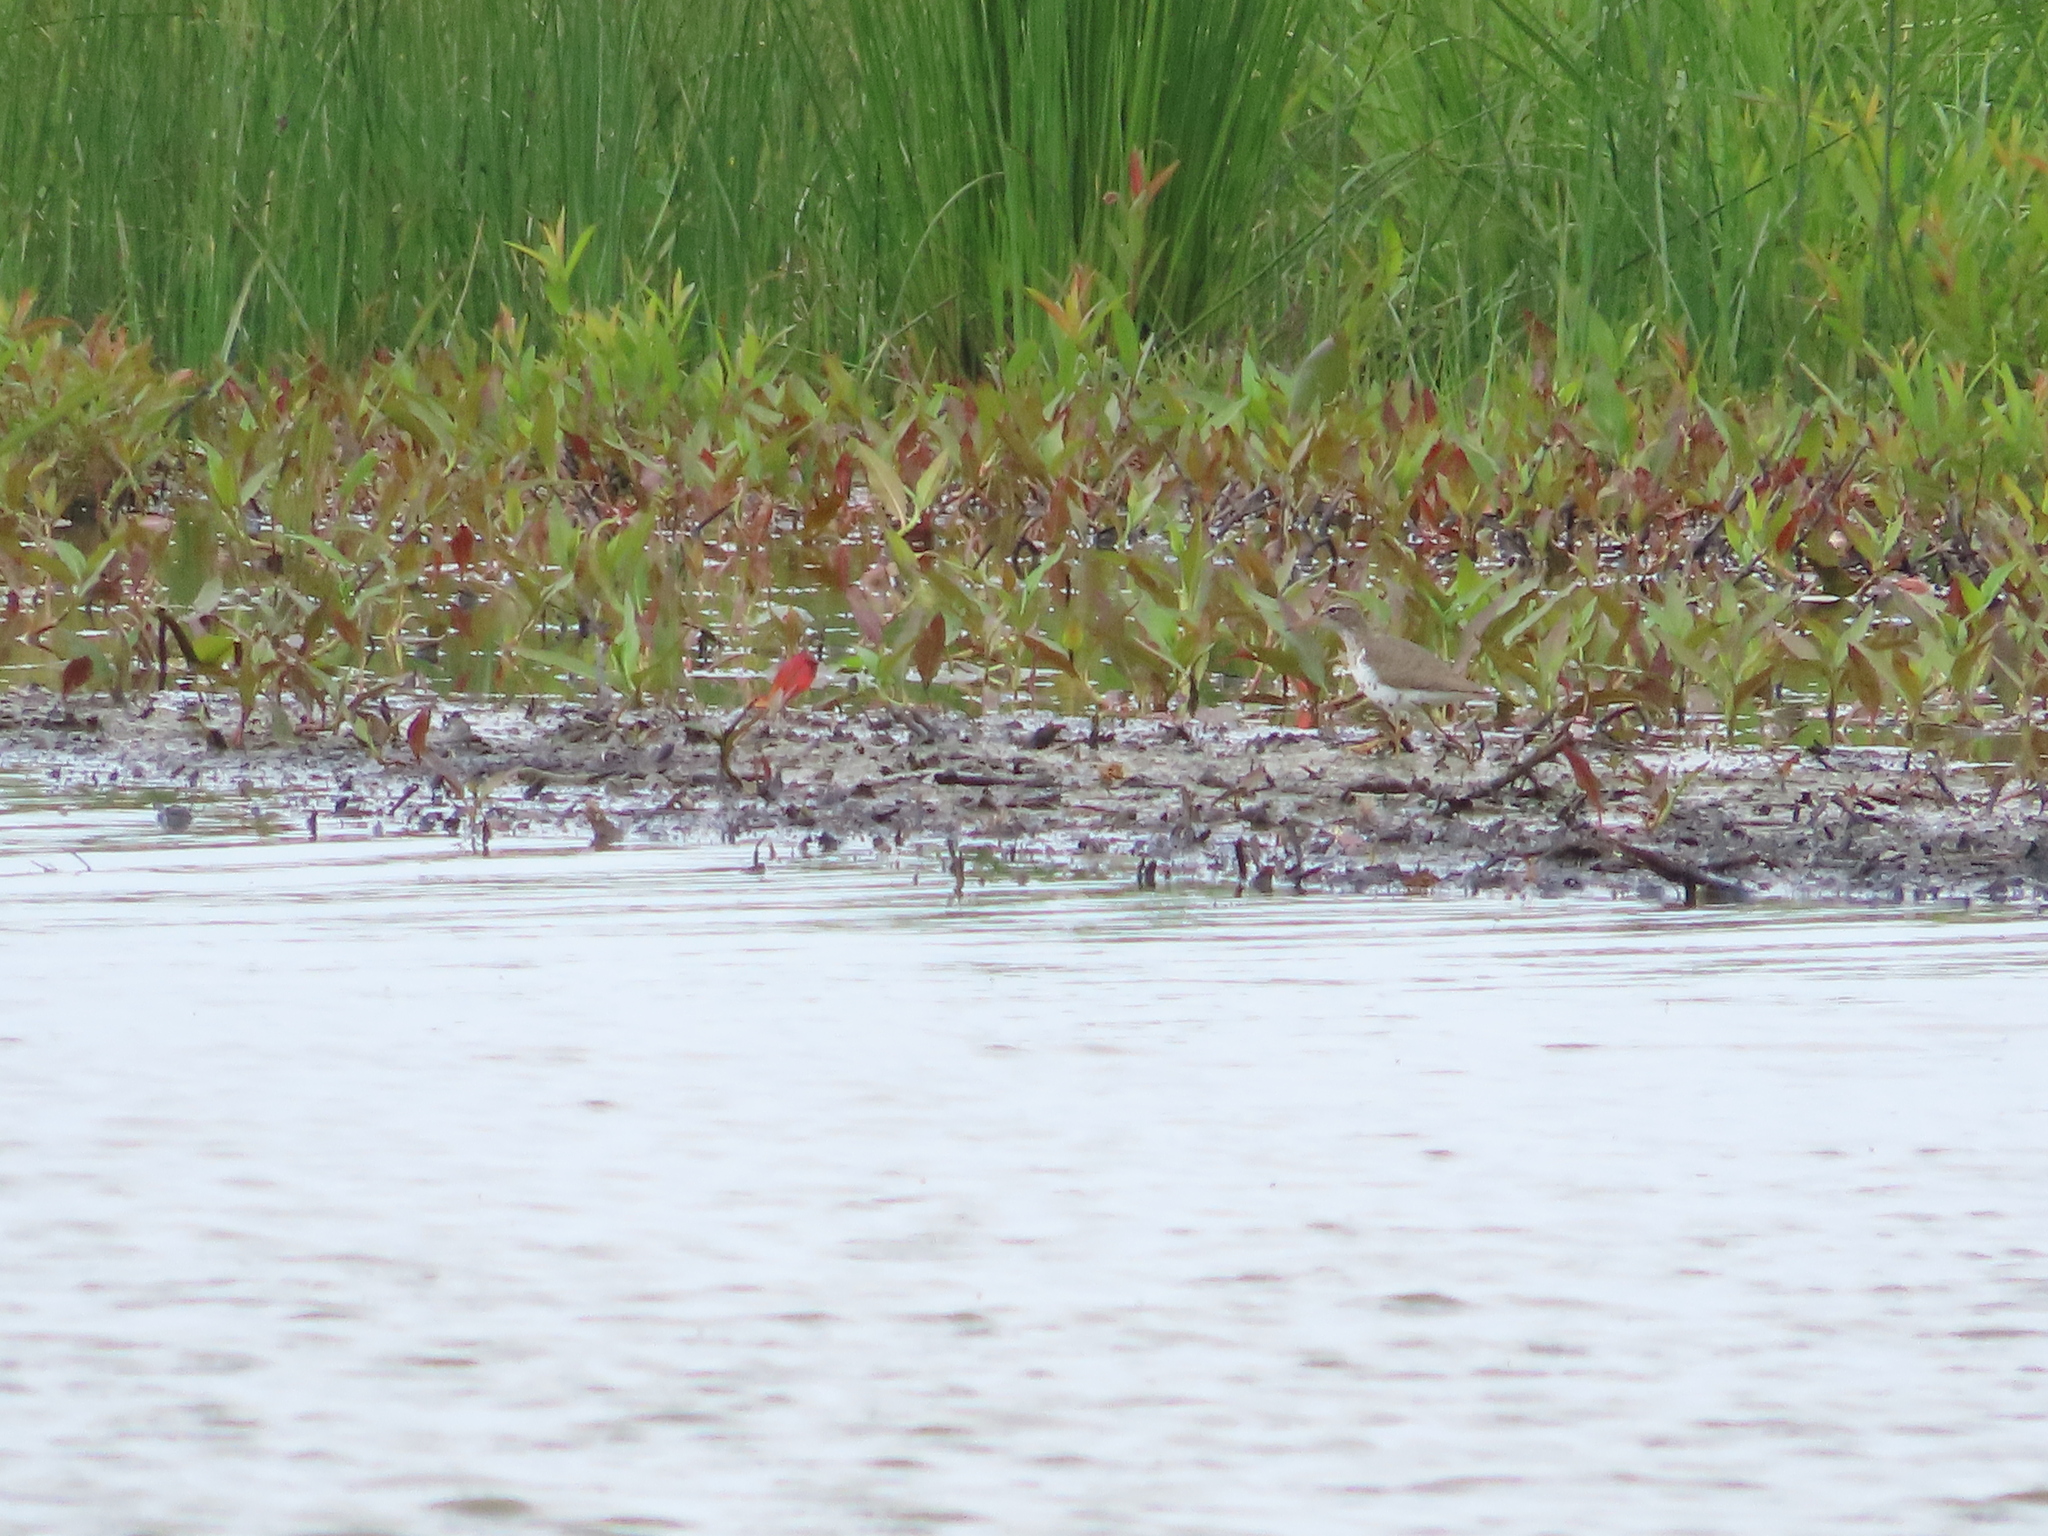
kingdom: Animalia
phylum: Chordata
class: Aves
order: Charadriiformes
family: Scolopacidae
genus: Actitis
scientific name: Actitis macularius
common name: Spotted sandpiper
